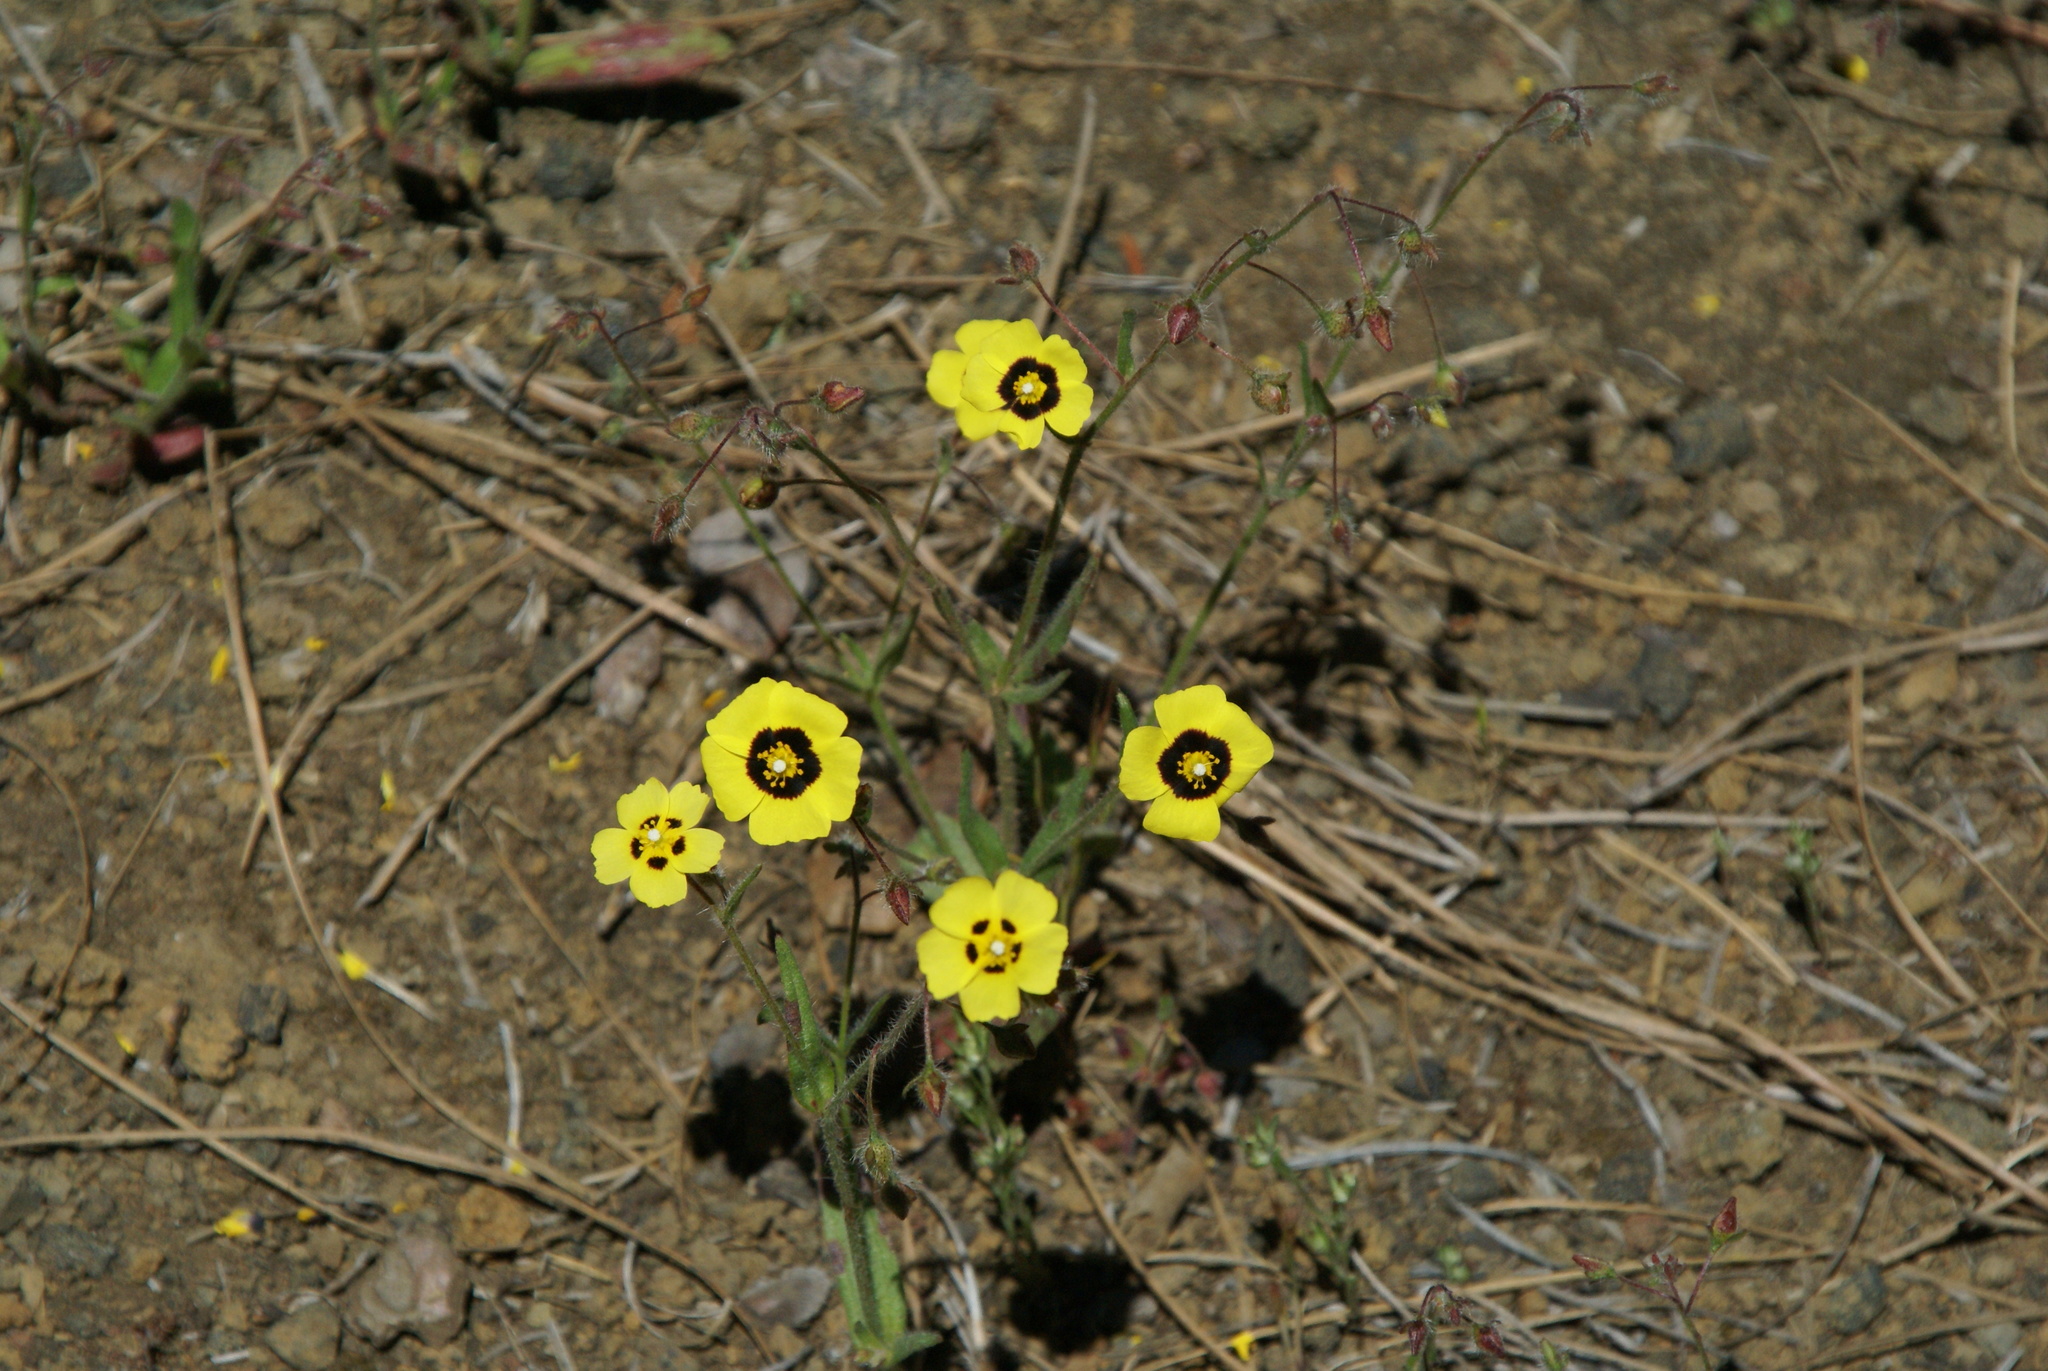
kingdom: Plantae
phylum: Tracheophyta
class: Magnoliopsida
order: Malvales
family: Cistaceae
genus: Tuberaria
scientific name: Tuberaria guttata
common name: Spotted rock-rose
